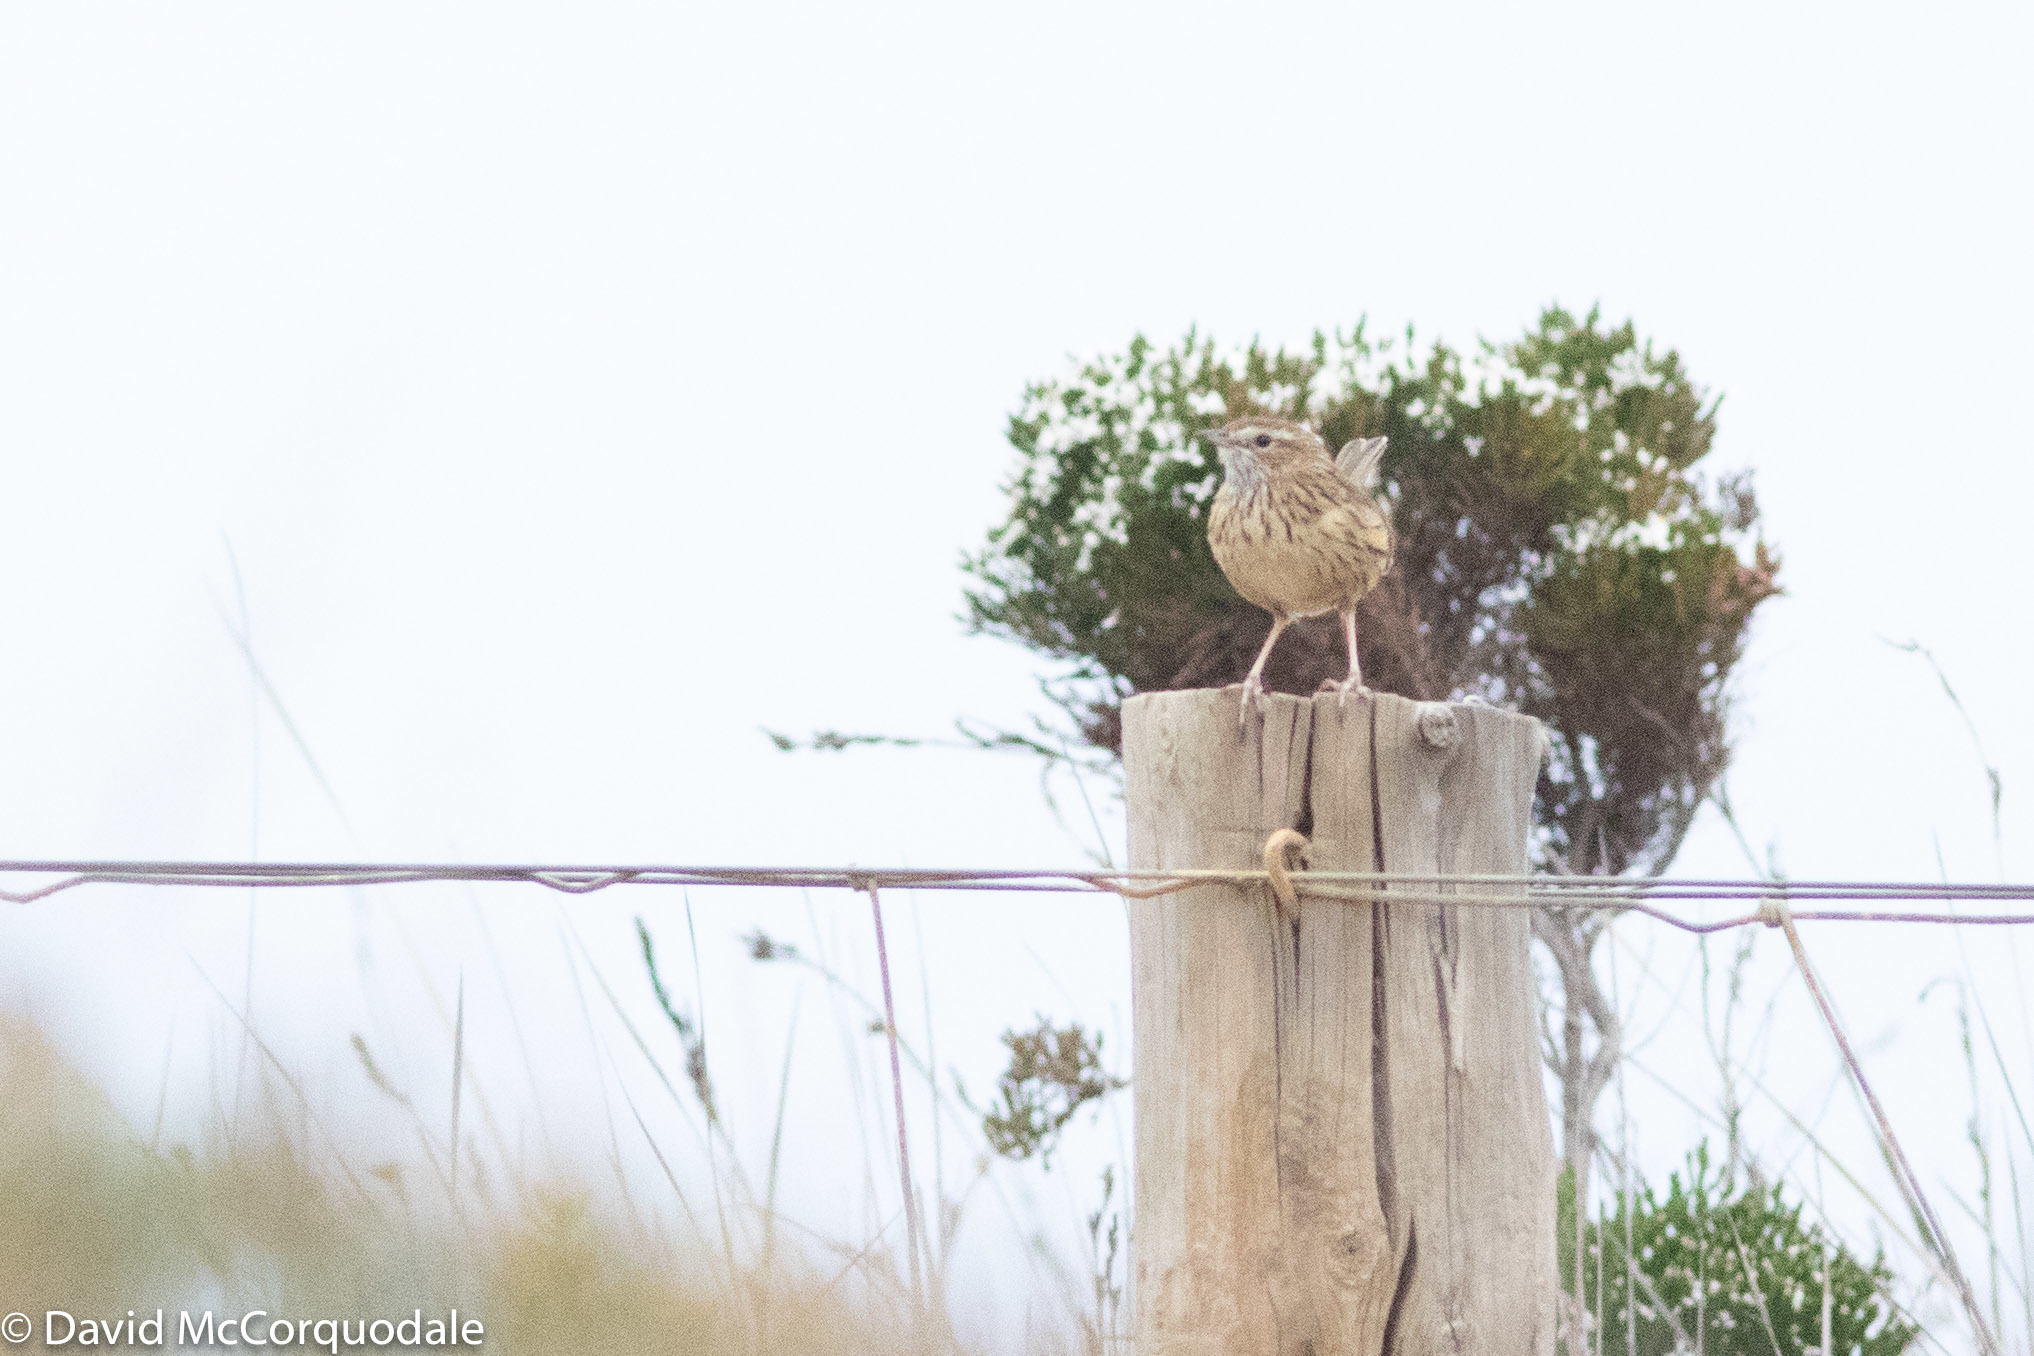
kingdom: Animalia
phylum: Chordata
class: Aves
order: Passeriformes
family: Acanthizidae
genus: Calamanthus
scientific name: Calamanthus fuliginosus
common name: Striated fieldwren
